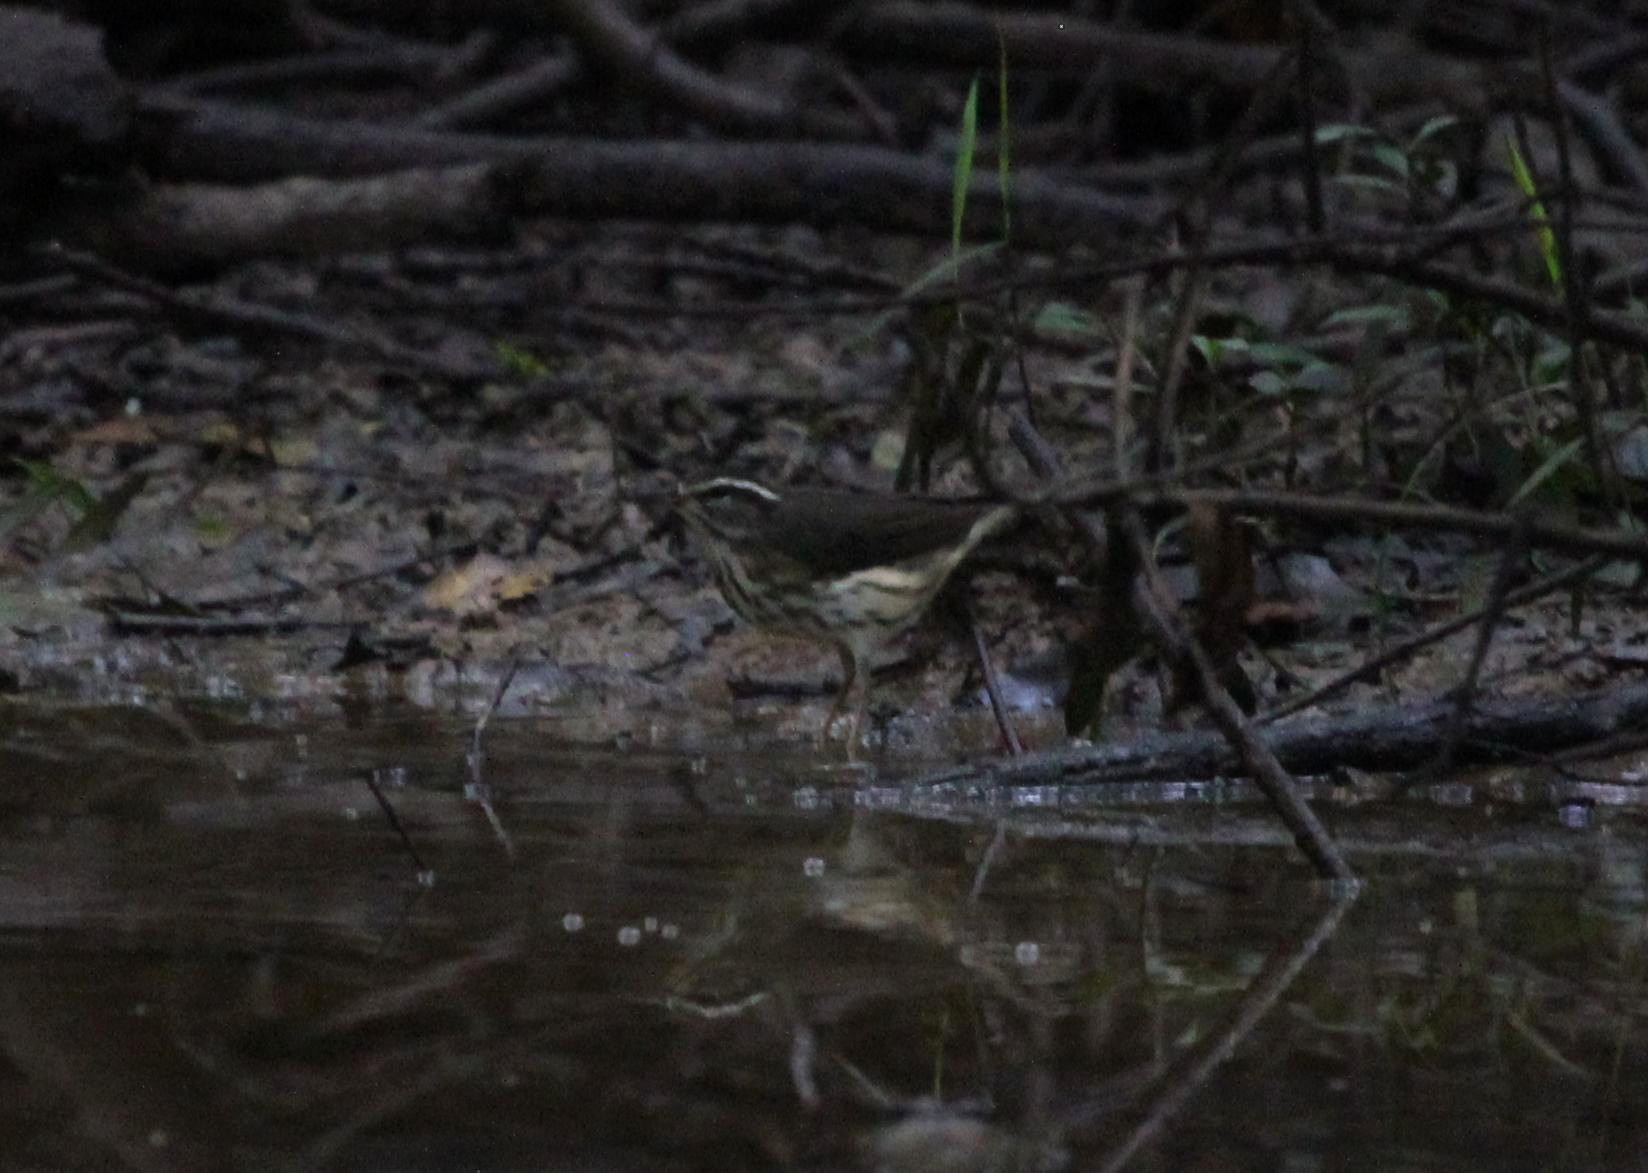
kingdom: Animalia
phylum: Chordata
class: Aves
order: Passeriformes
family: Parulidae
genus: Parkesia
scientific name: Parkesia motacilla
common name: Louisiana waterthrush
